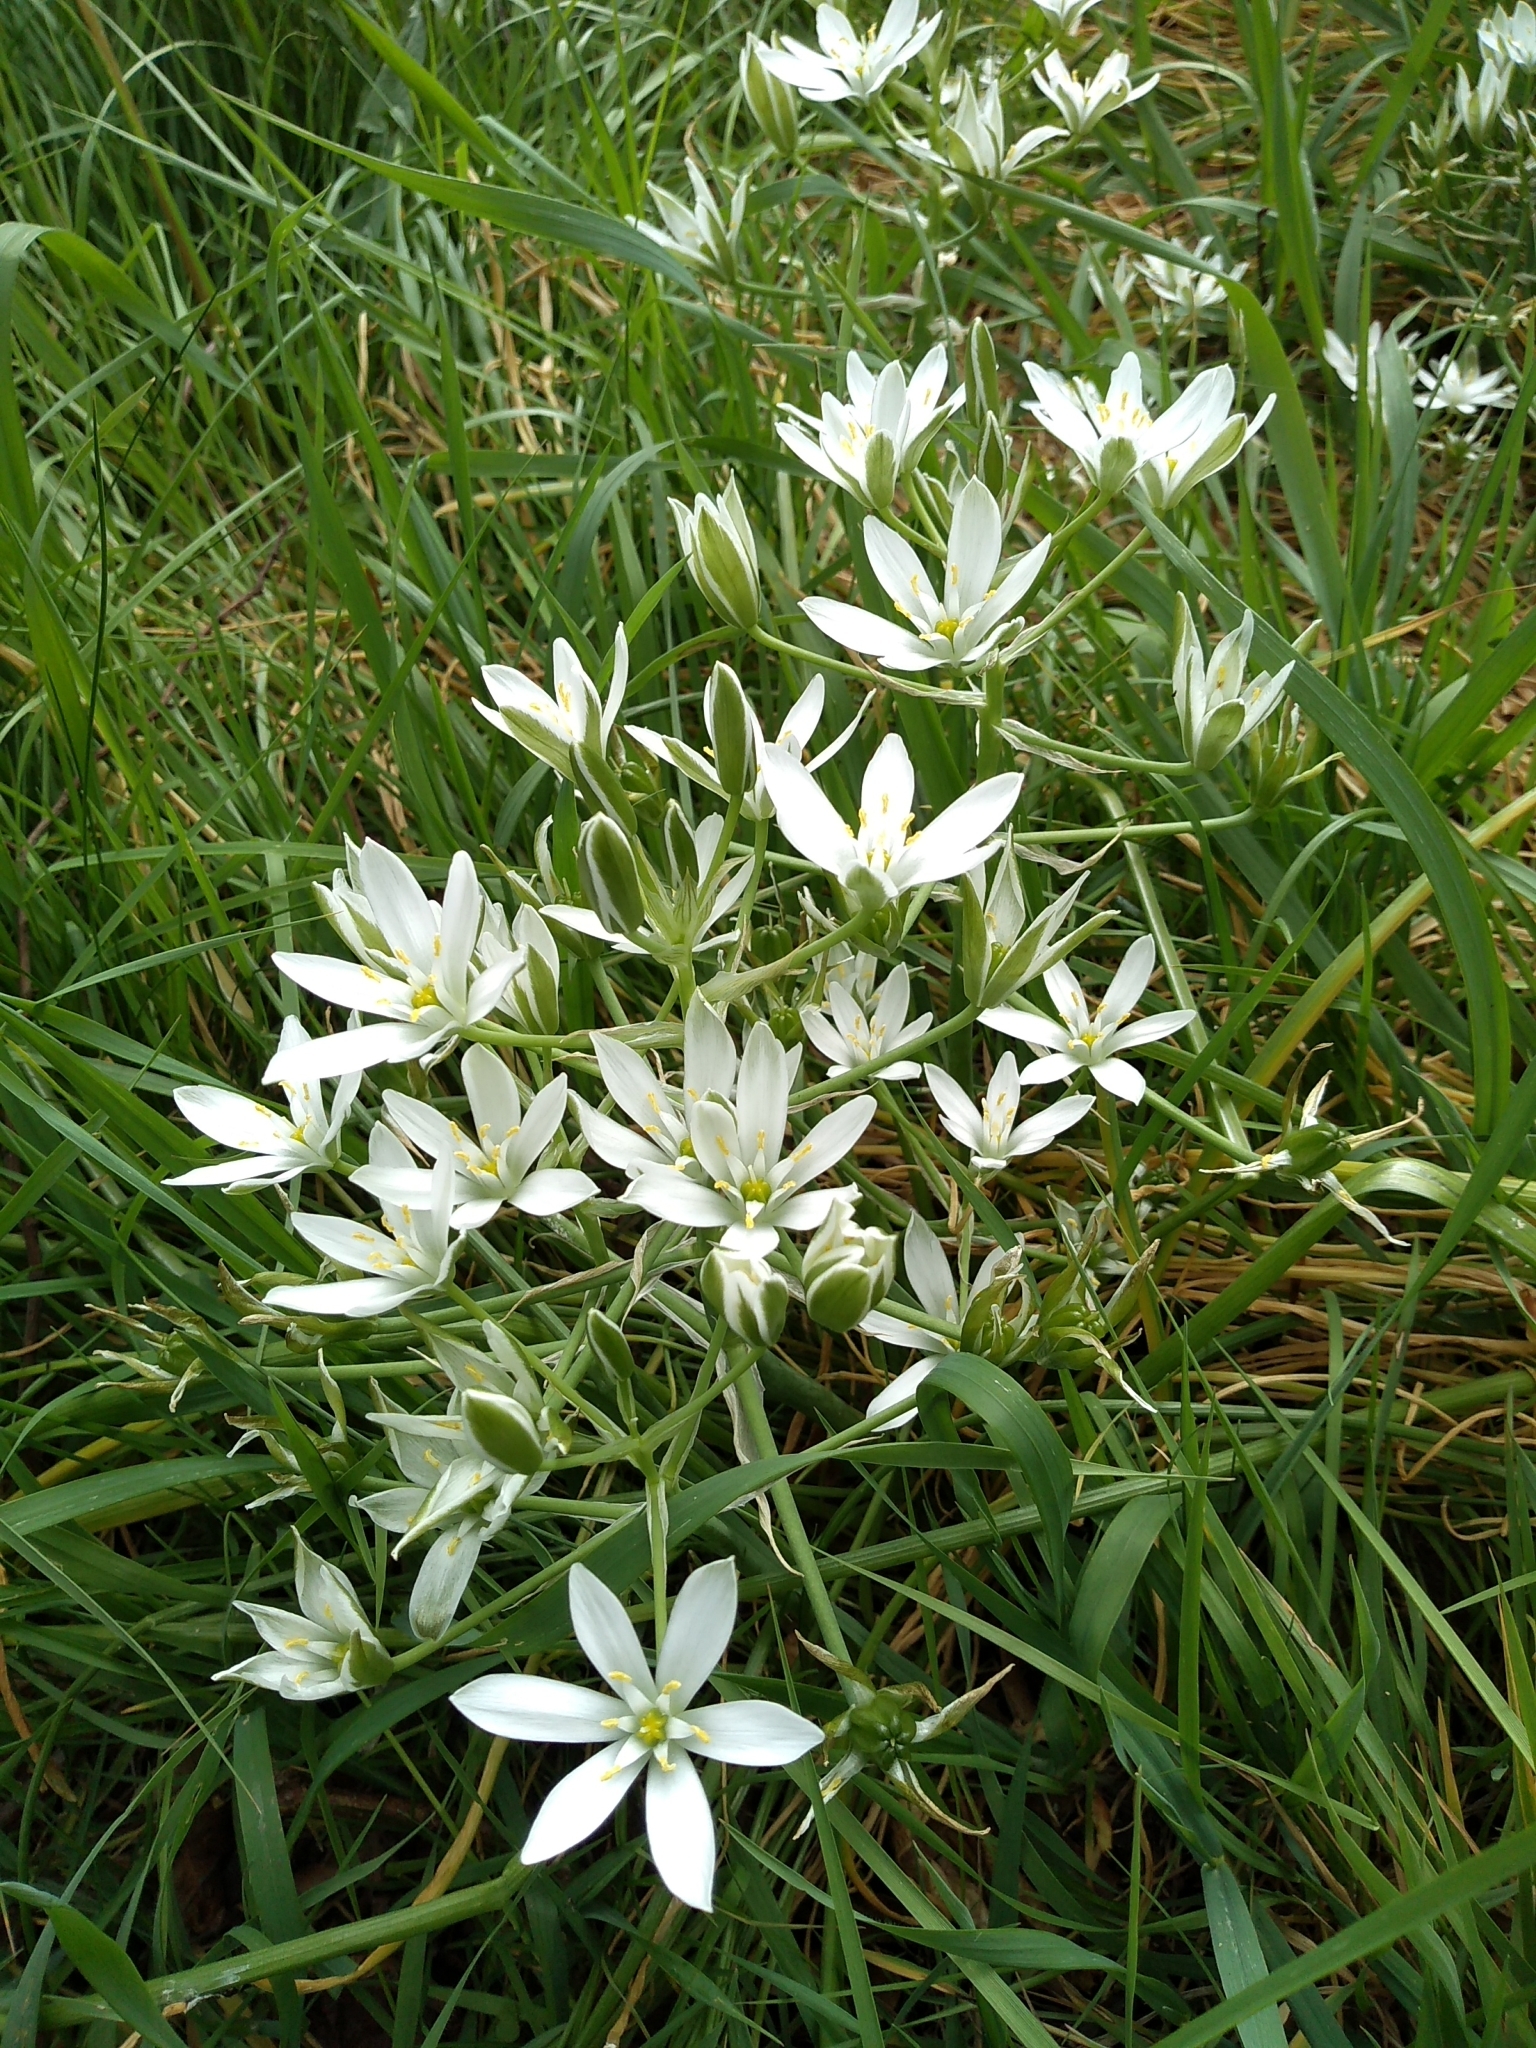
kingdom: Plantae
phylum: Tracheophyta
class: Liliopsida
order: Asparagales
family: Asparagaceae
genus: Ornithogalum
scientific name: Ornithogalum umbellatum
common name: Garden star-of-bethlehem
